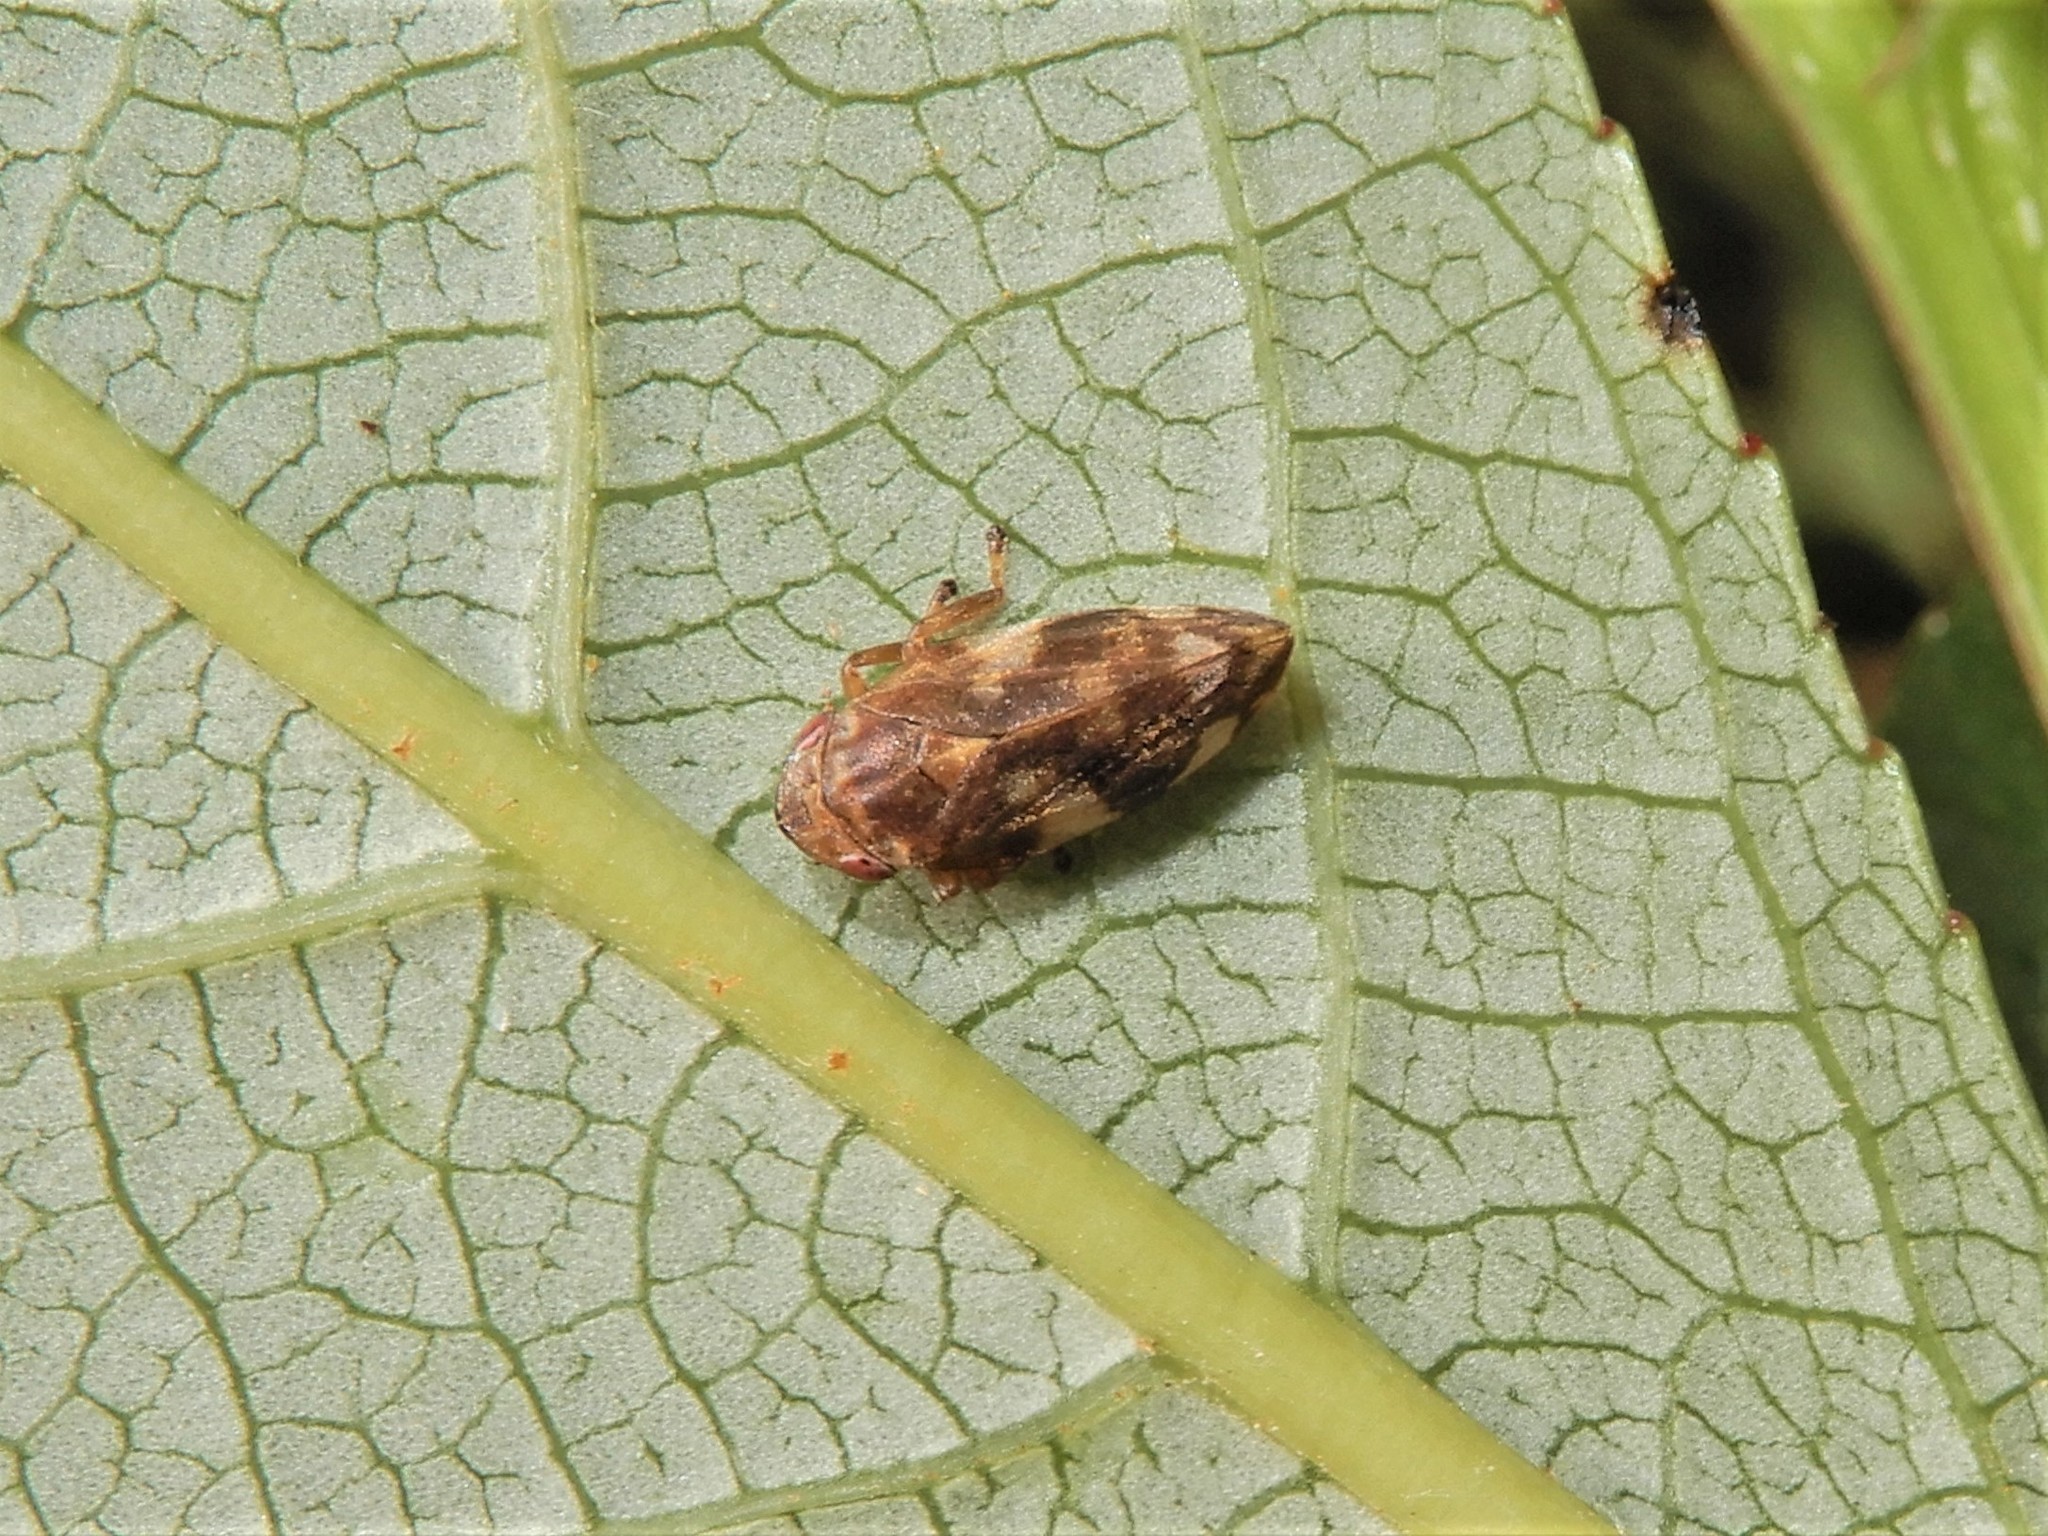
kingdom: Animalia
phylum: Arthropoda
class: Insecta
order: Hemiptera
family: Aphrophoridae
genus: Philaenus
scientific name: Philaenus spumarius
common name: Meadow spittlebug
